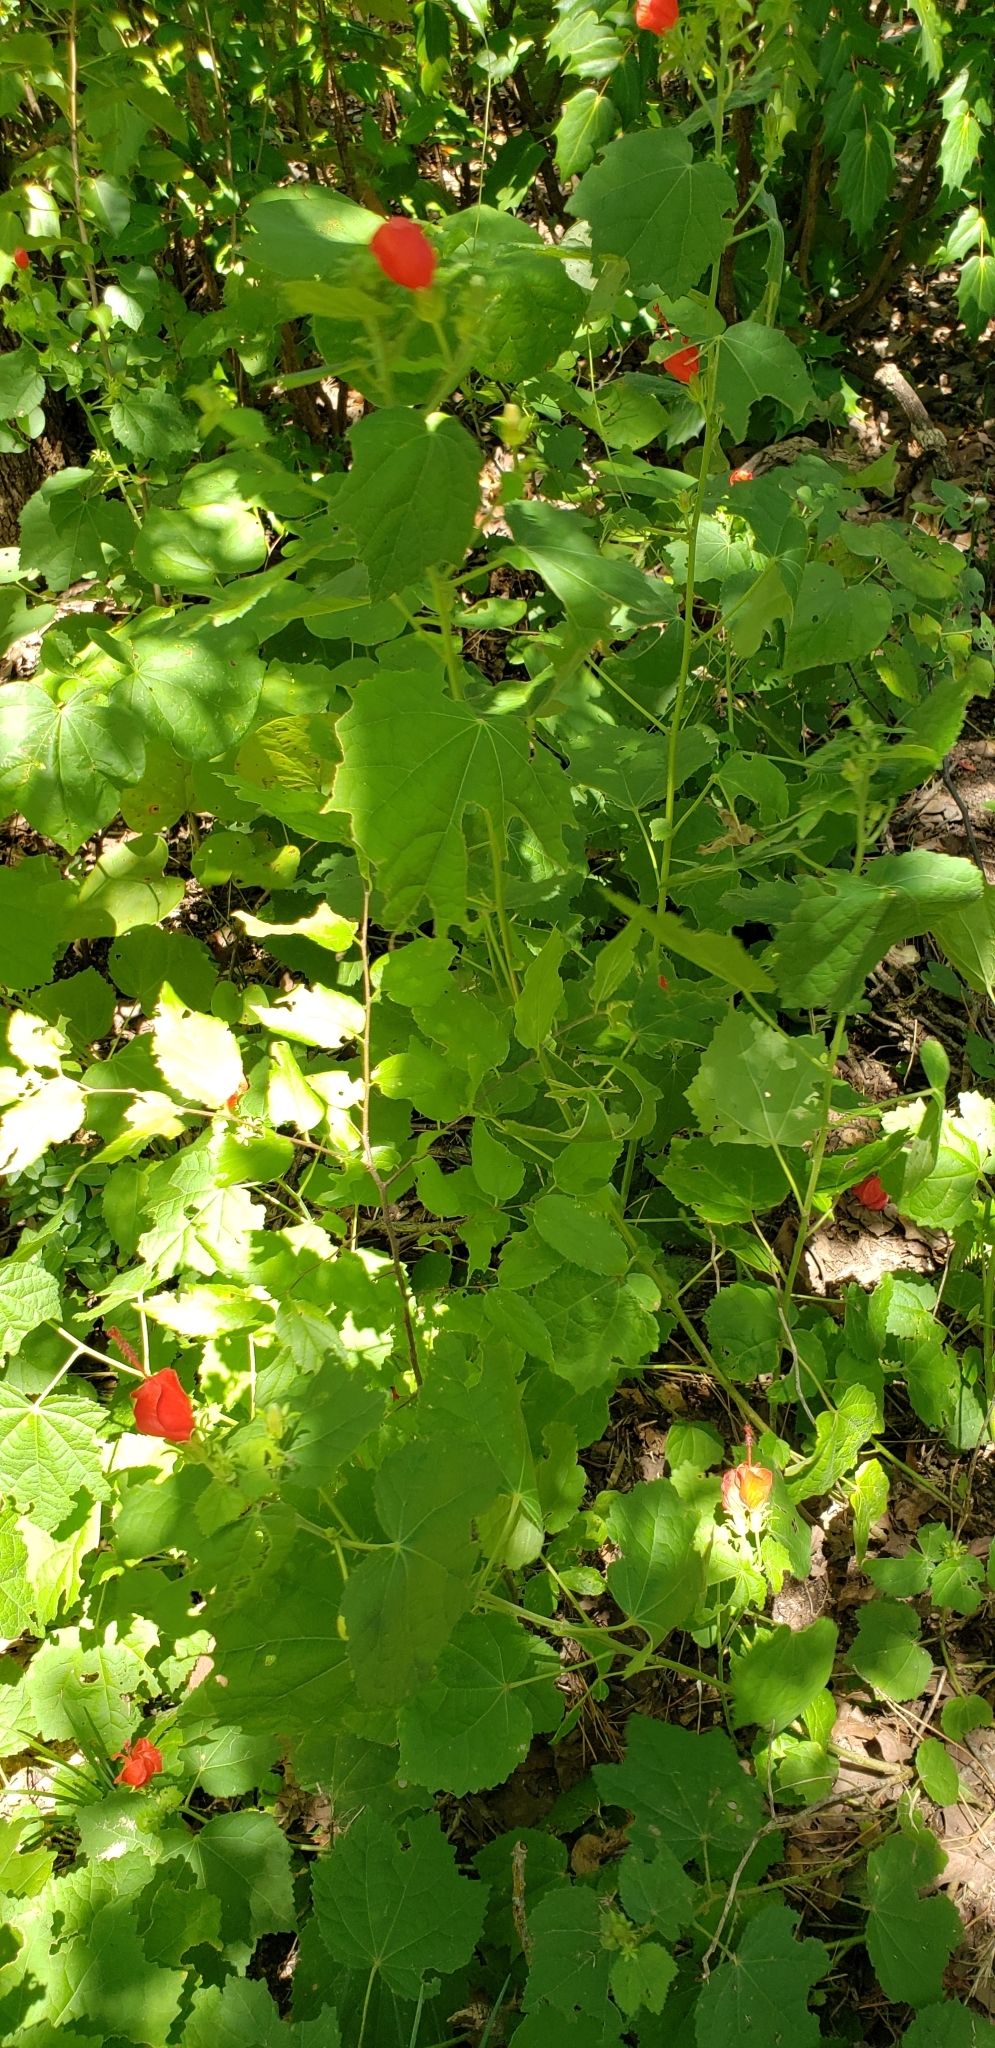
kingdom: Plantae
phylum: Tracheophyta
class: Magnoliopsida
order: Malvales
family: Malvaceae
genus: Malvaviscus
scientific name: Malvaviscus arboreus
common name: Wax mallow
